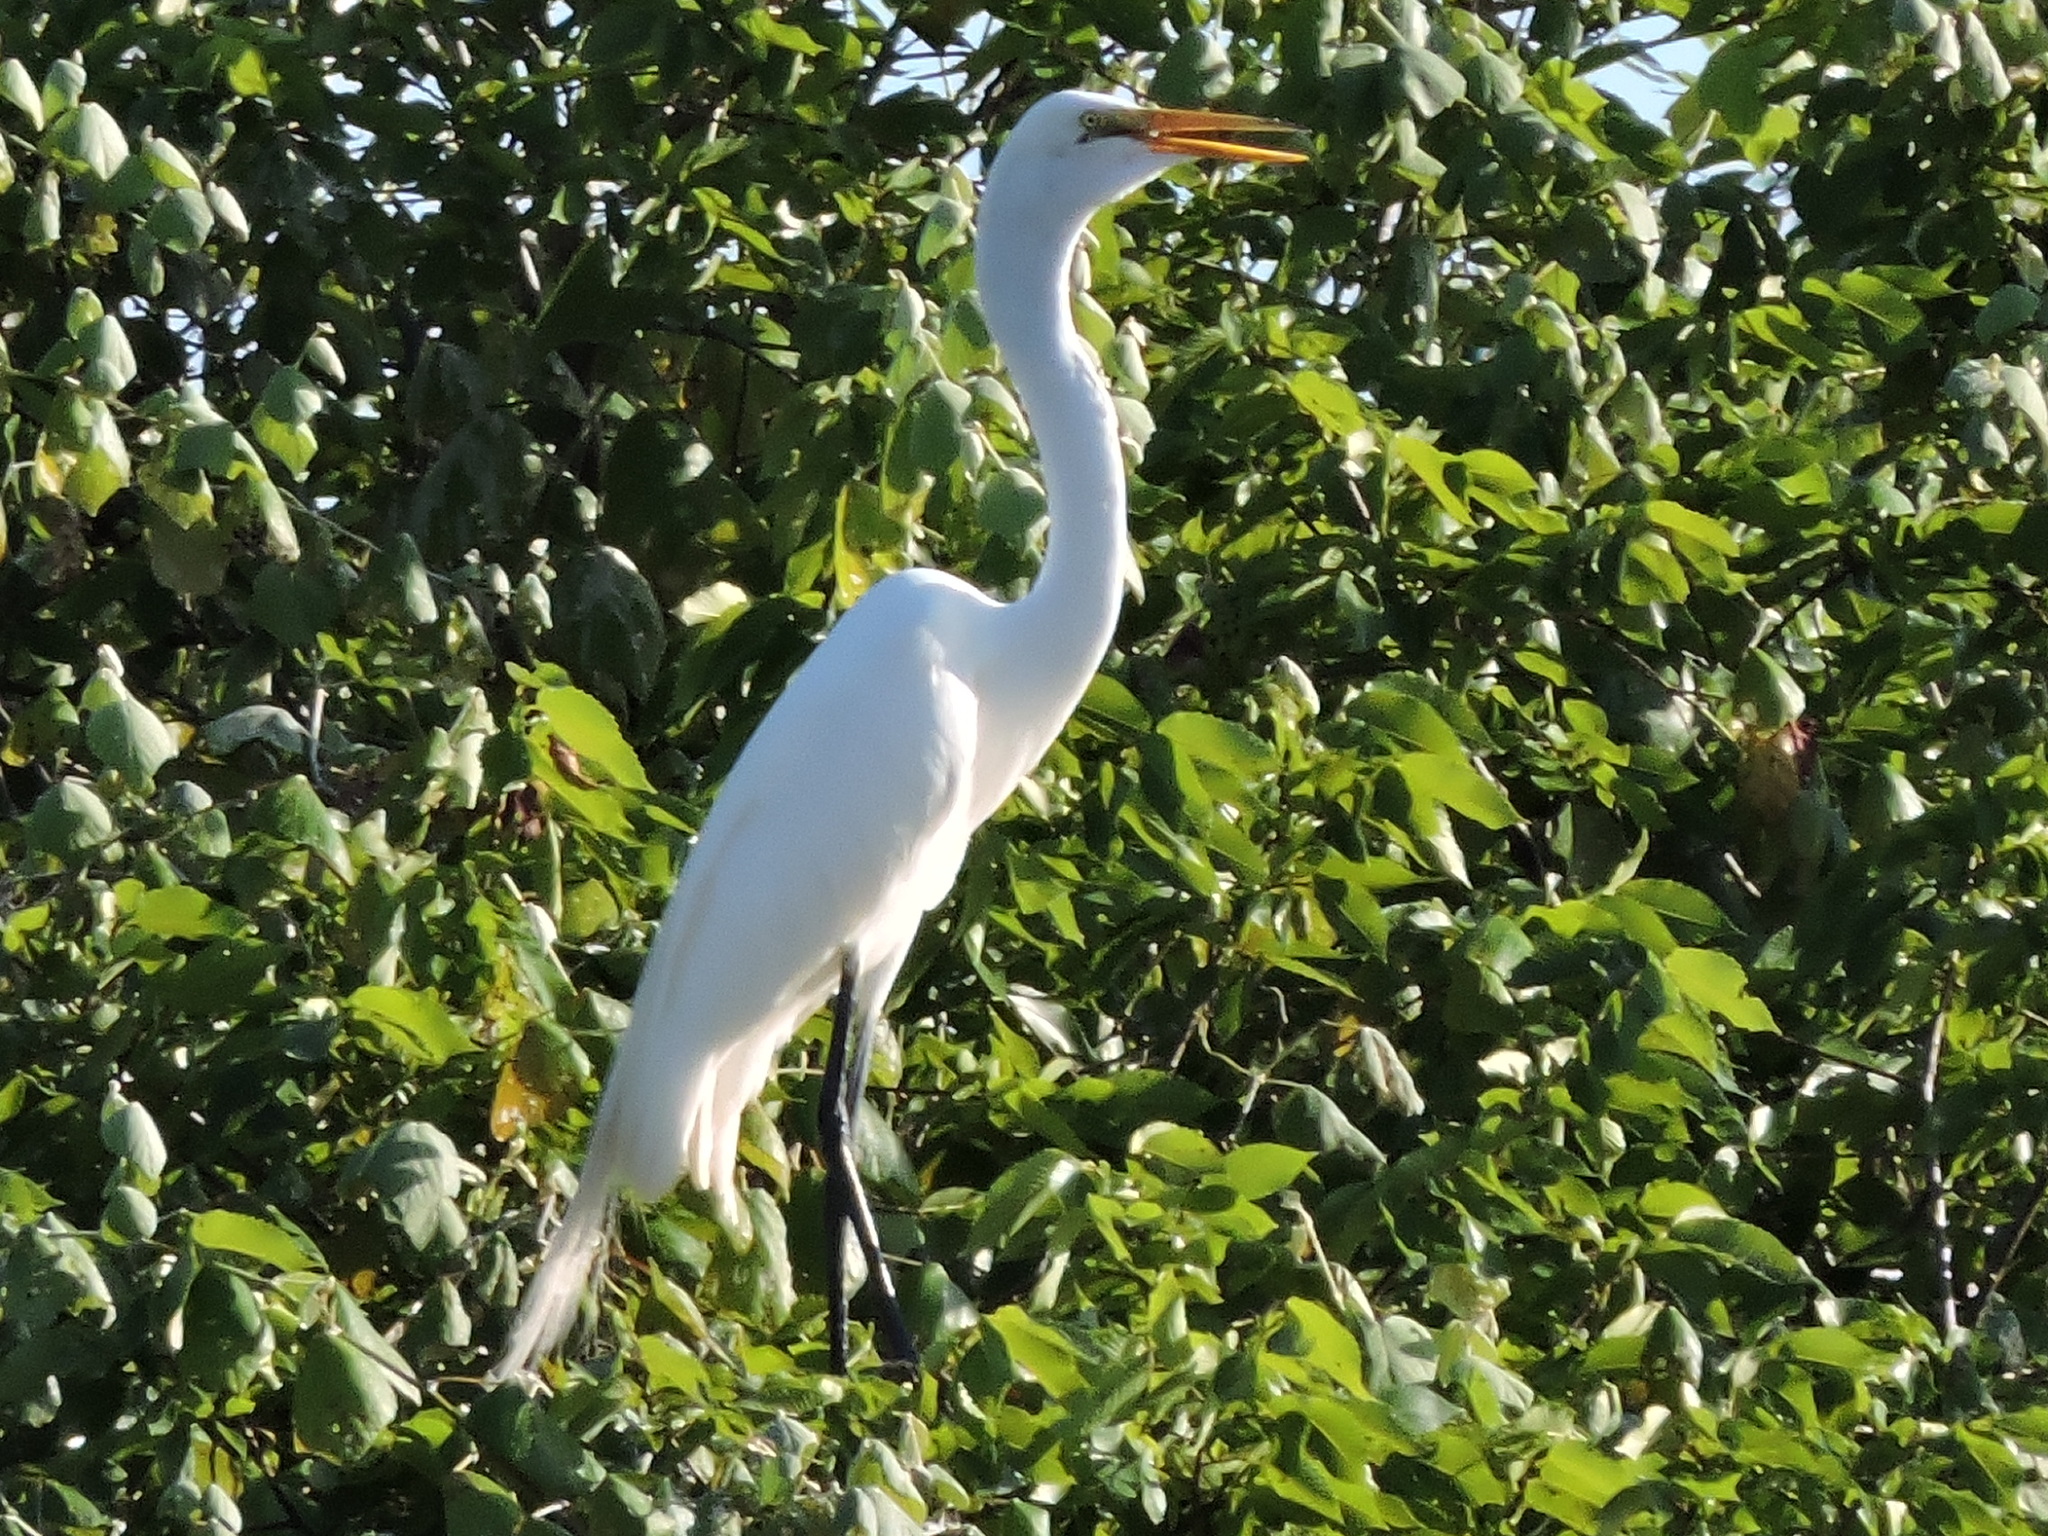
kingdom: Animalia
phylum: Chordata
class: Aves
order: Pelecaniformes
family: Ardeidae
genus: Ardea
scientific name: Ardea alba
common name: Great egret
